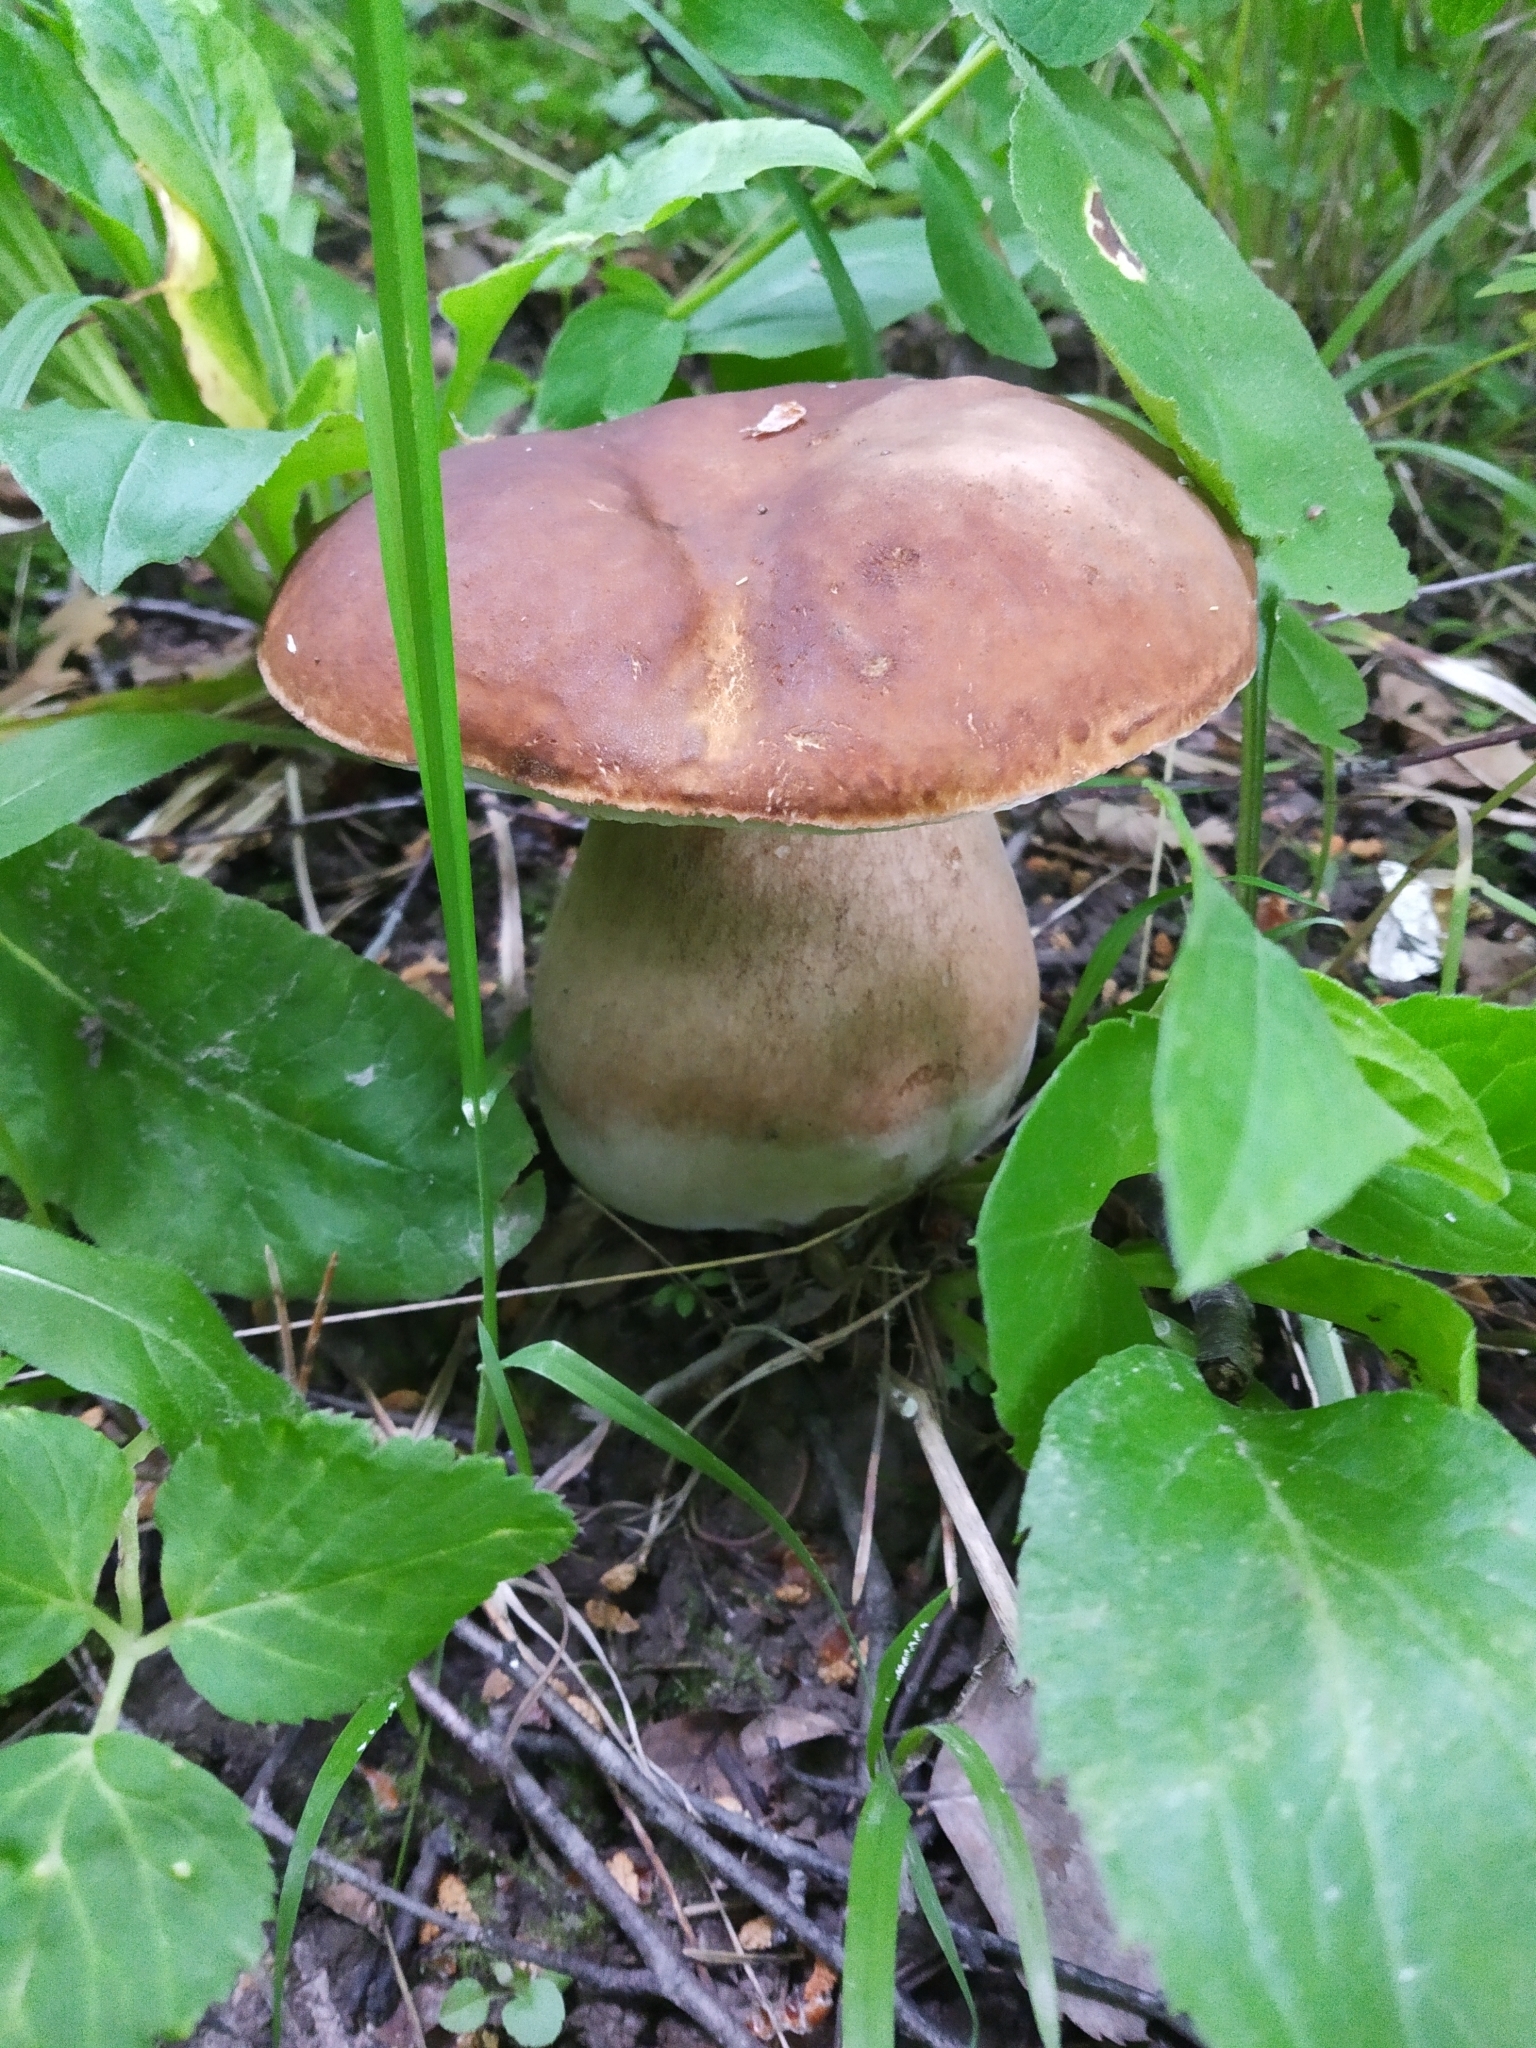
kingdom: Fungi
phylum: Basidiomycota
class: Agaricomycetes
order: Boletales
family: Boletaceae
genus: Boletus
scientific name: Boletus edulis
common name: Cep
